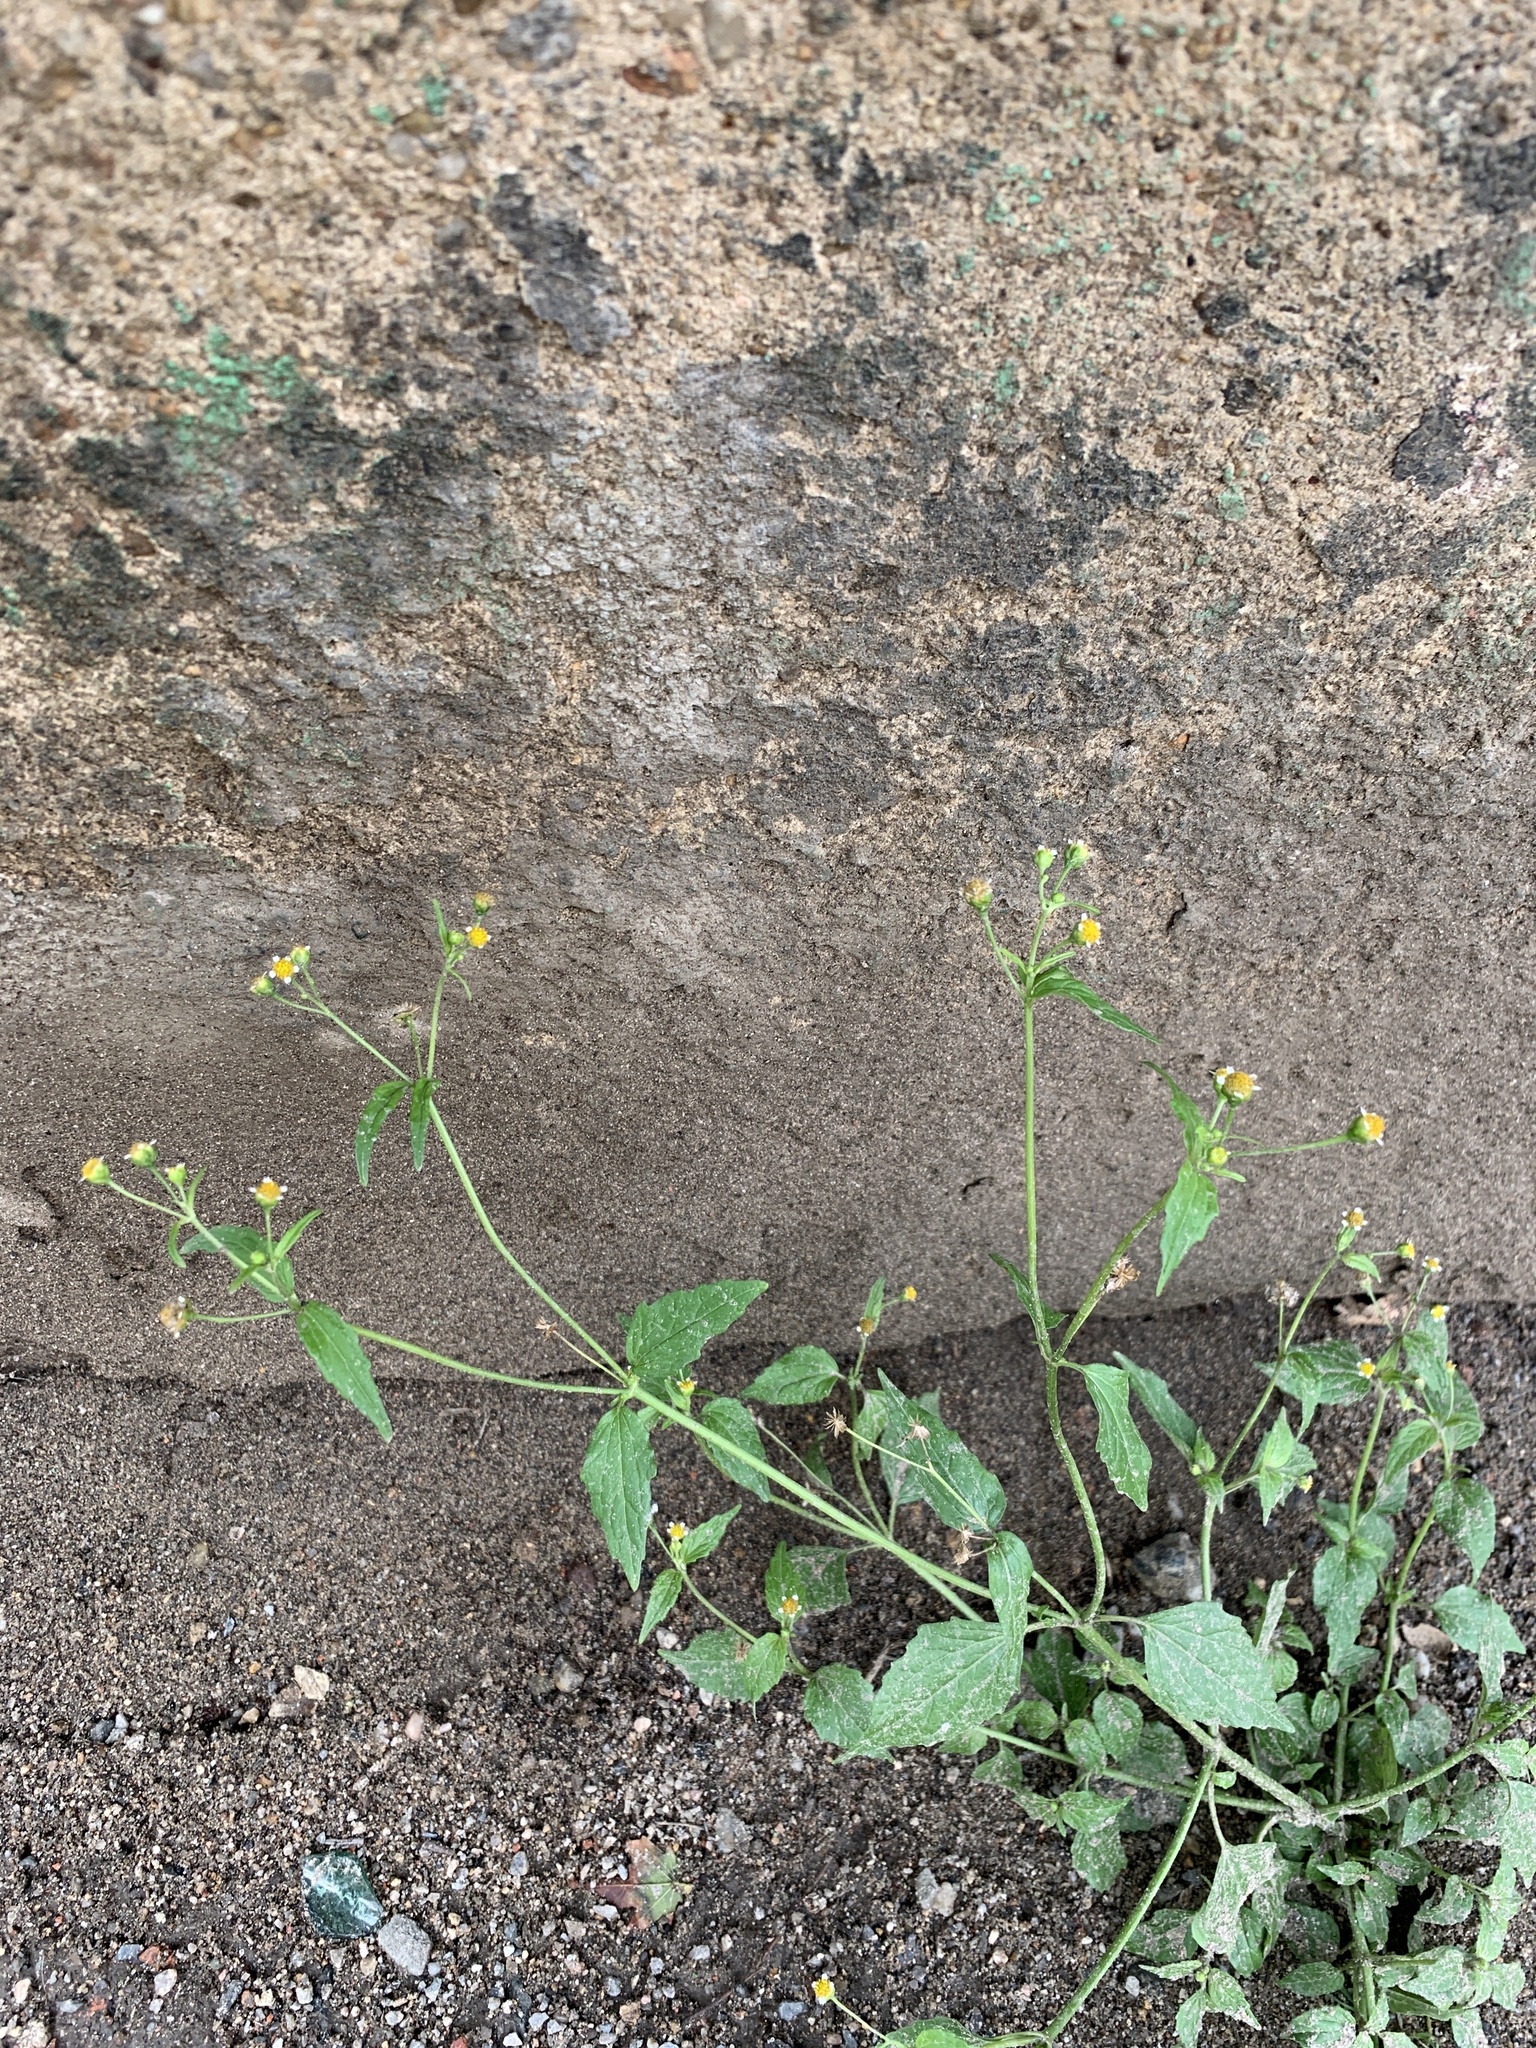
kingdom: Plantae
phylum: Tracheophyta
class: Magnoliopsida
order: Asterales
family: Asteraceae
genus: Galinsoga
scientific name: Galinsoga parviflora
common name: Gallant soldier
